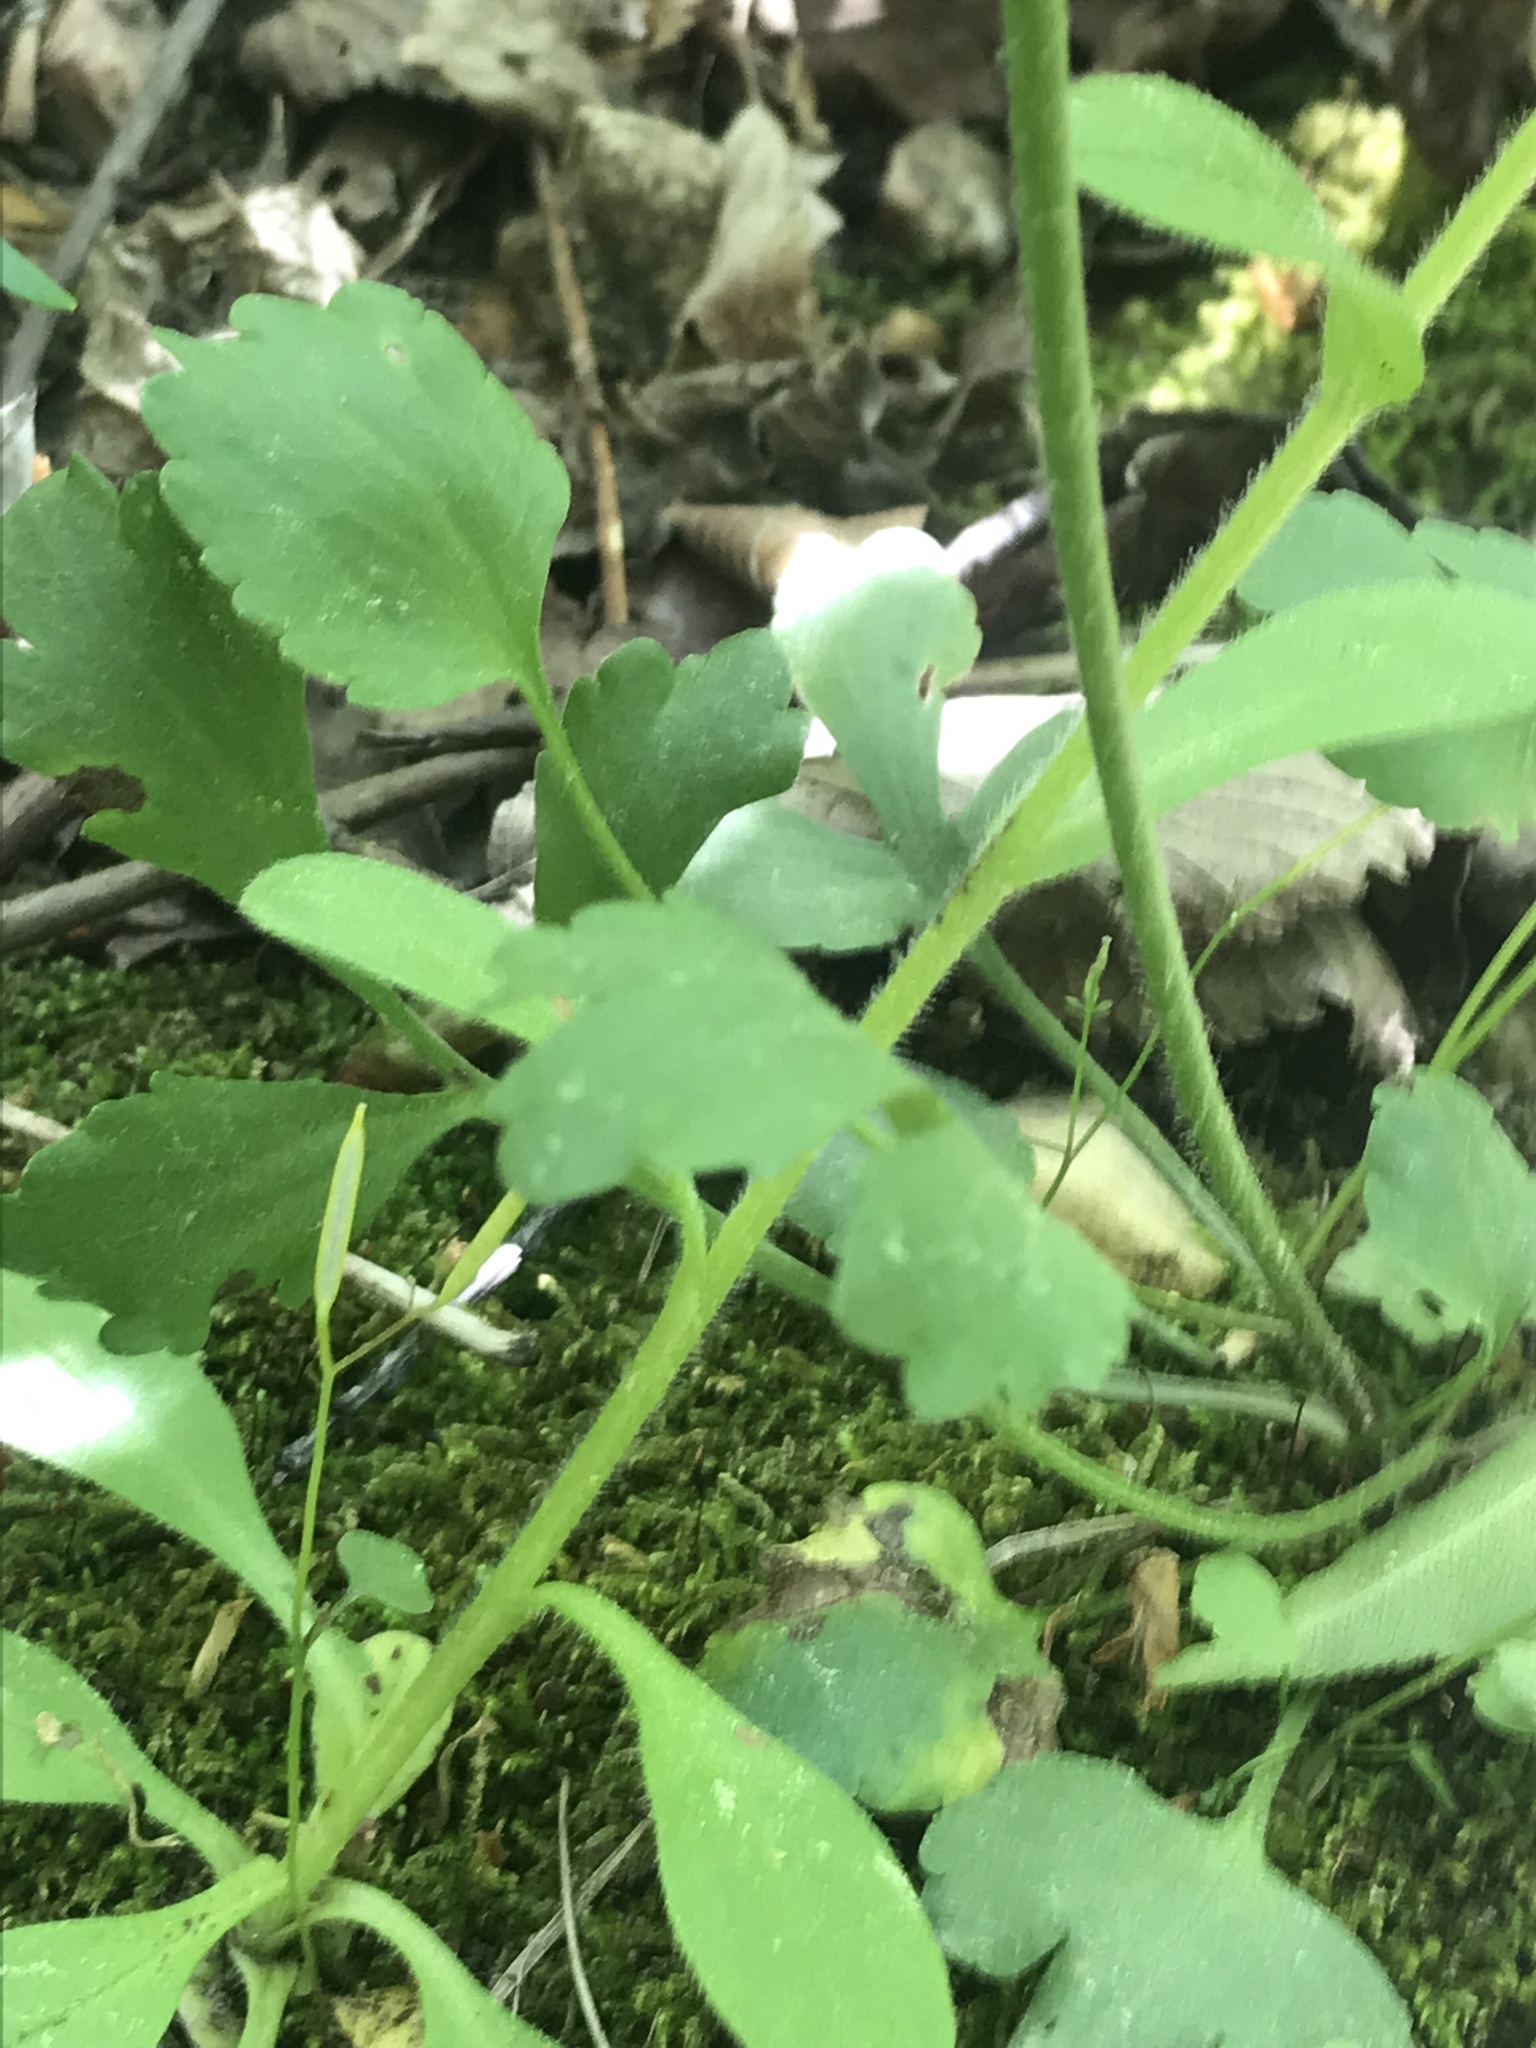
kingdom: Plantae
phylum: Tracheophyta
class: Magnoliopsida
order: Ranunculales
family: Ranunculaceae
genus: Ranunculus
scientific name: Ranunculus micranthus
